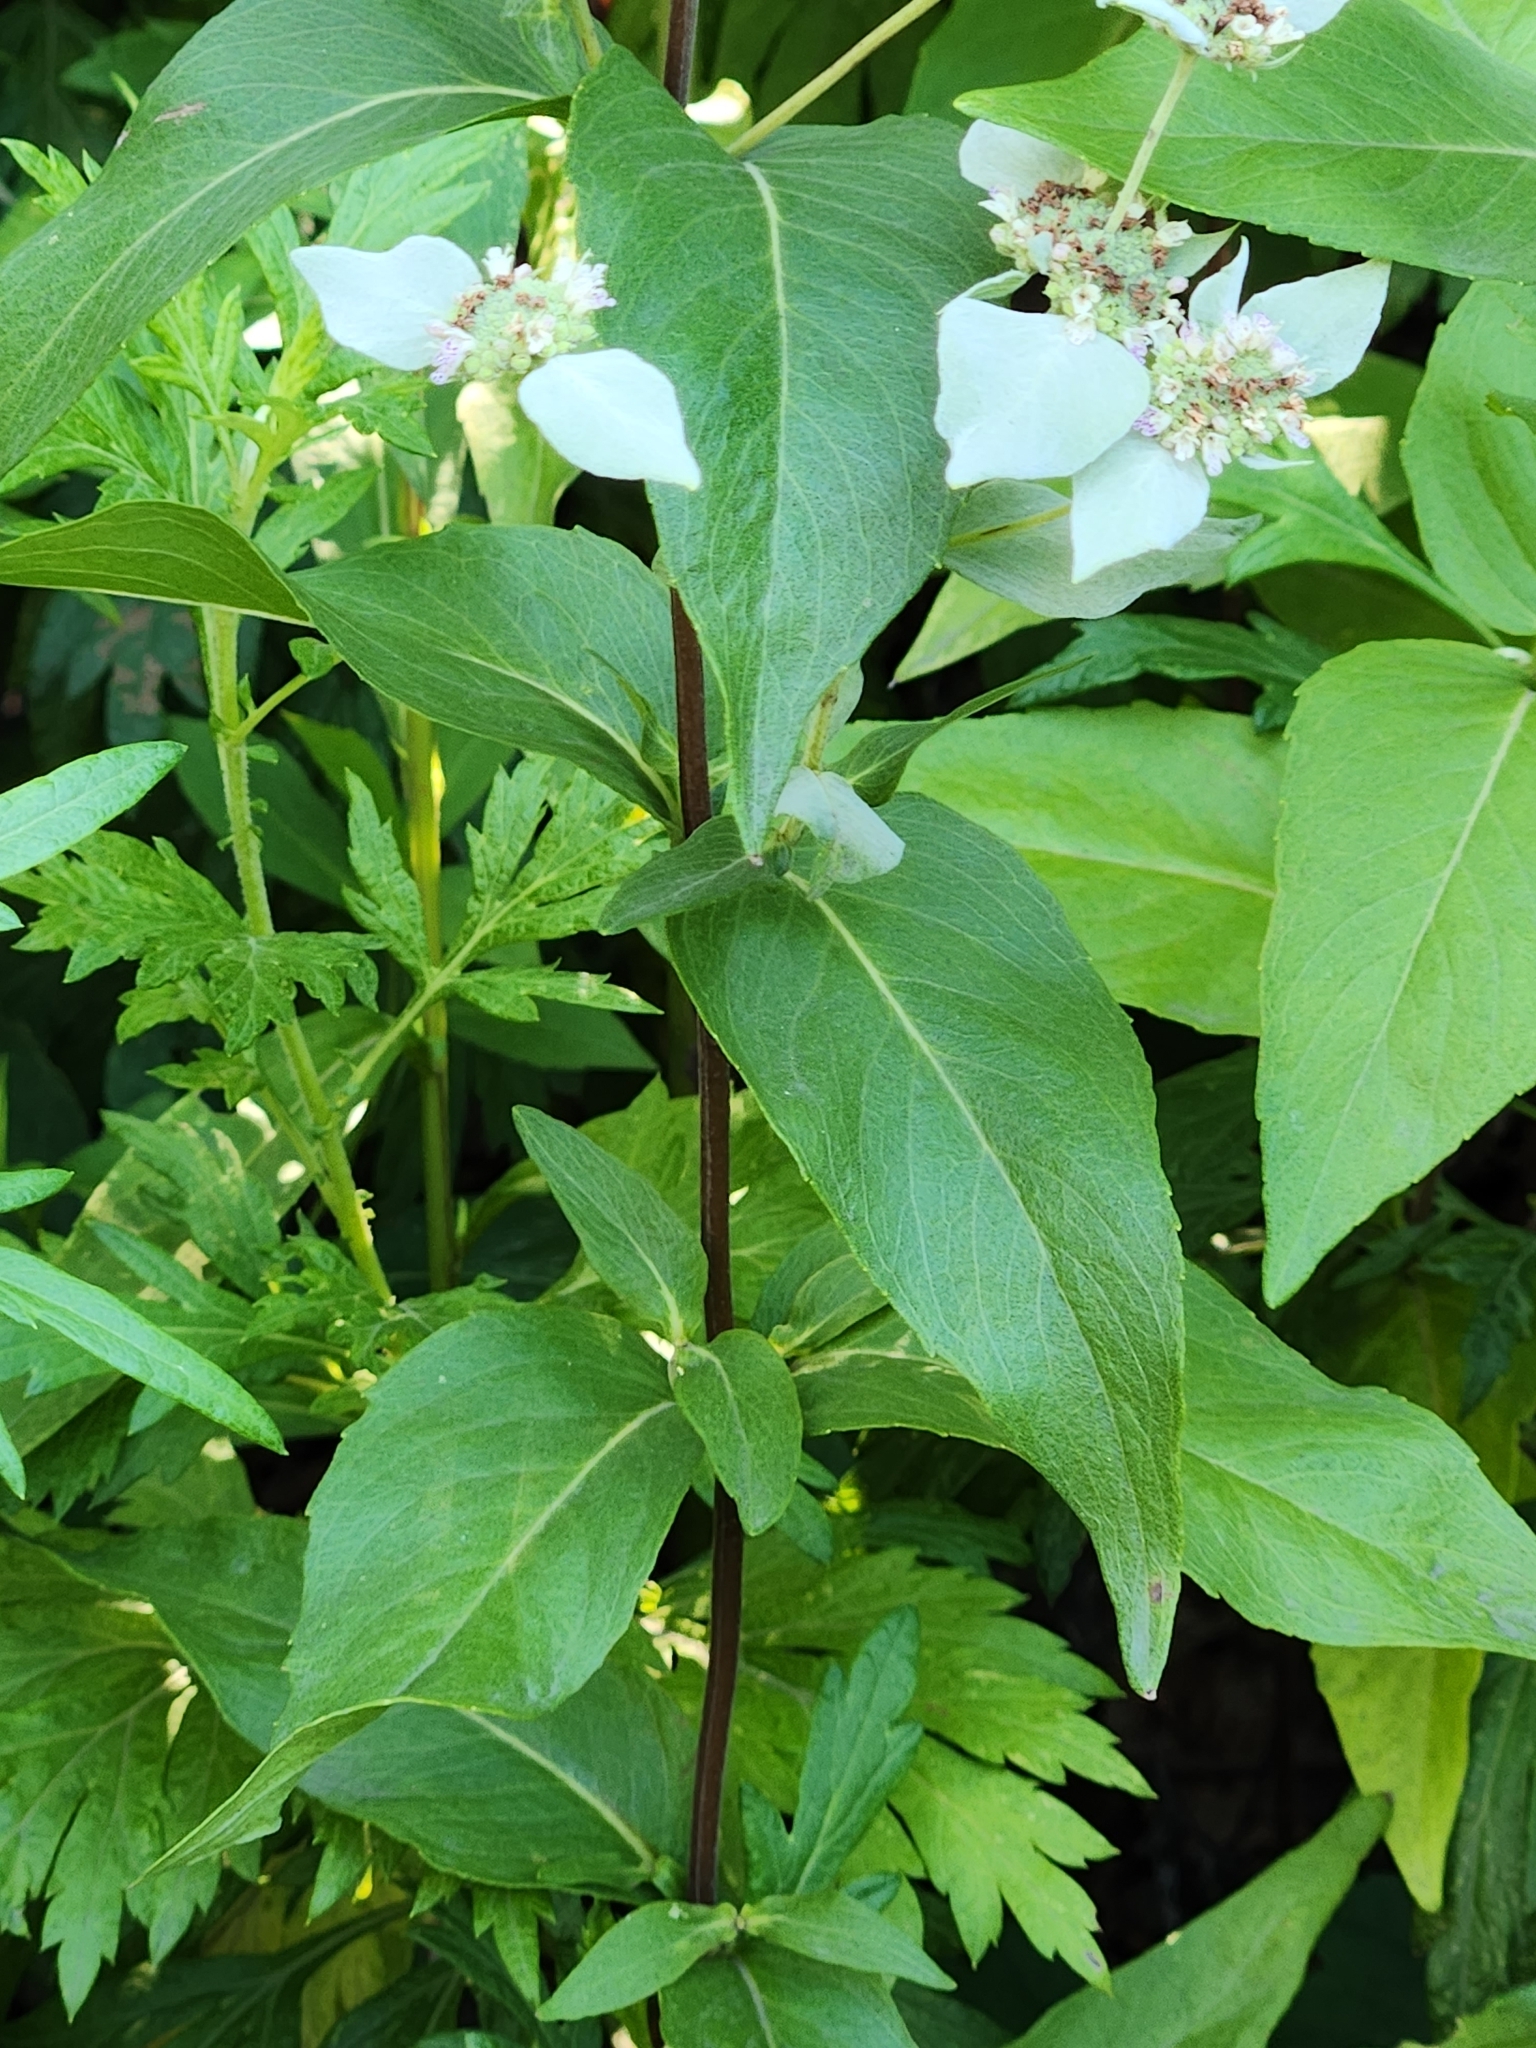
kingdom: Plantae
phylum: Tracheophyta
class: Magnoliopsida
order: Lamiales
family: Lamiaceae
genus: Pycnanthemum
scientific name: Pycnanthemum muticum
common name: Blunt mountain-mint
